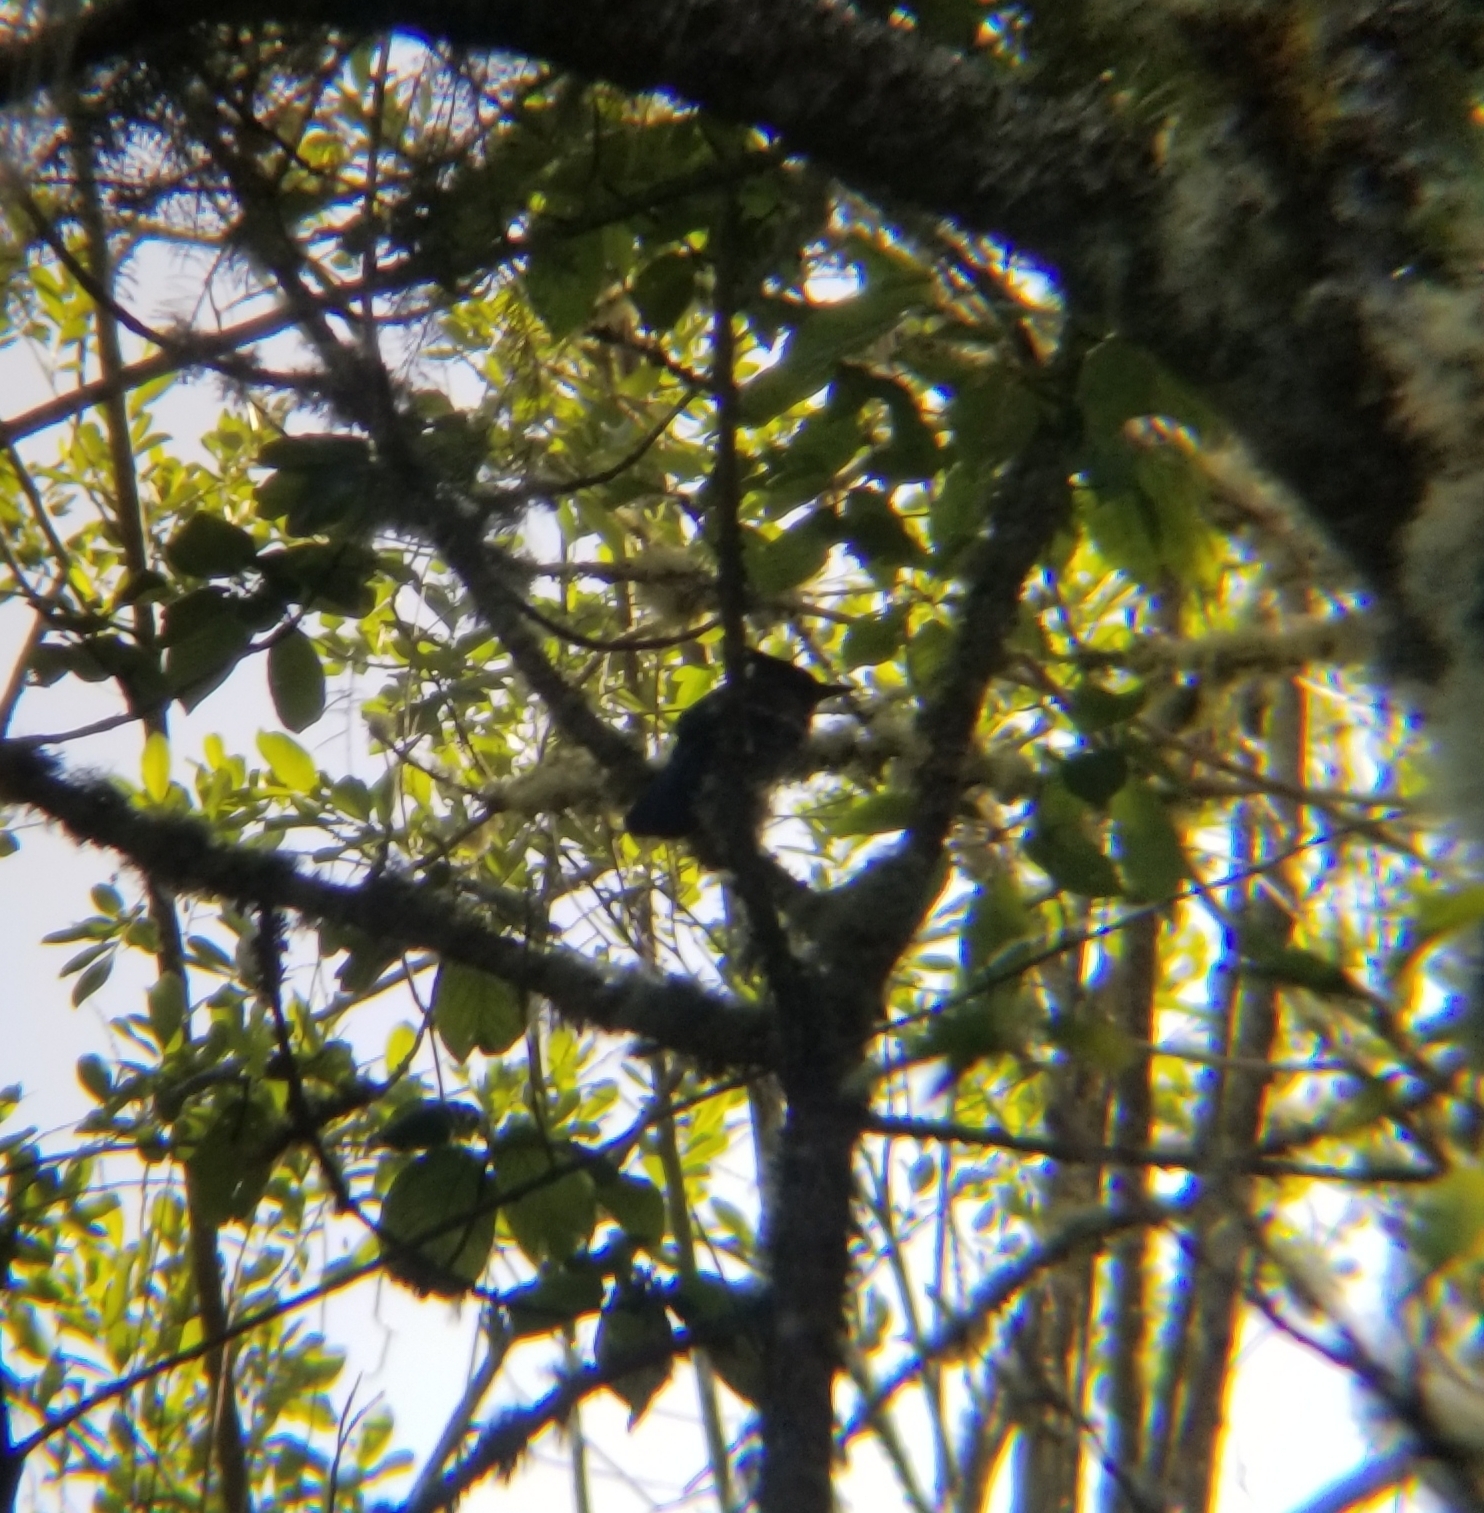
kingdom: Animalia
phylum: Chordata
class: Aves
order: Passeriformes
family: Corvidae
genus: Cyanocitta
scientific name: Cyanocitta stelleri
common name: Steller's jay
